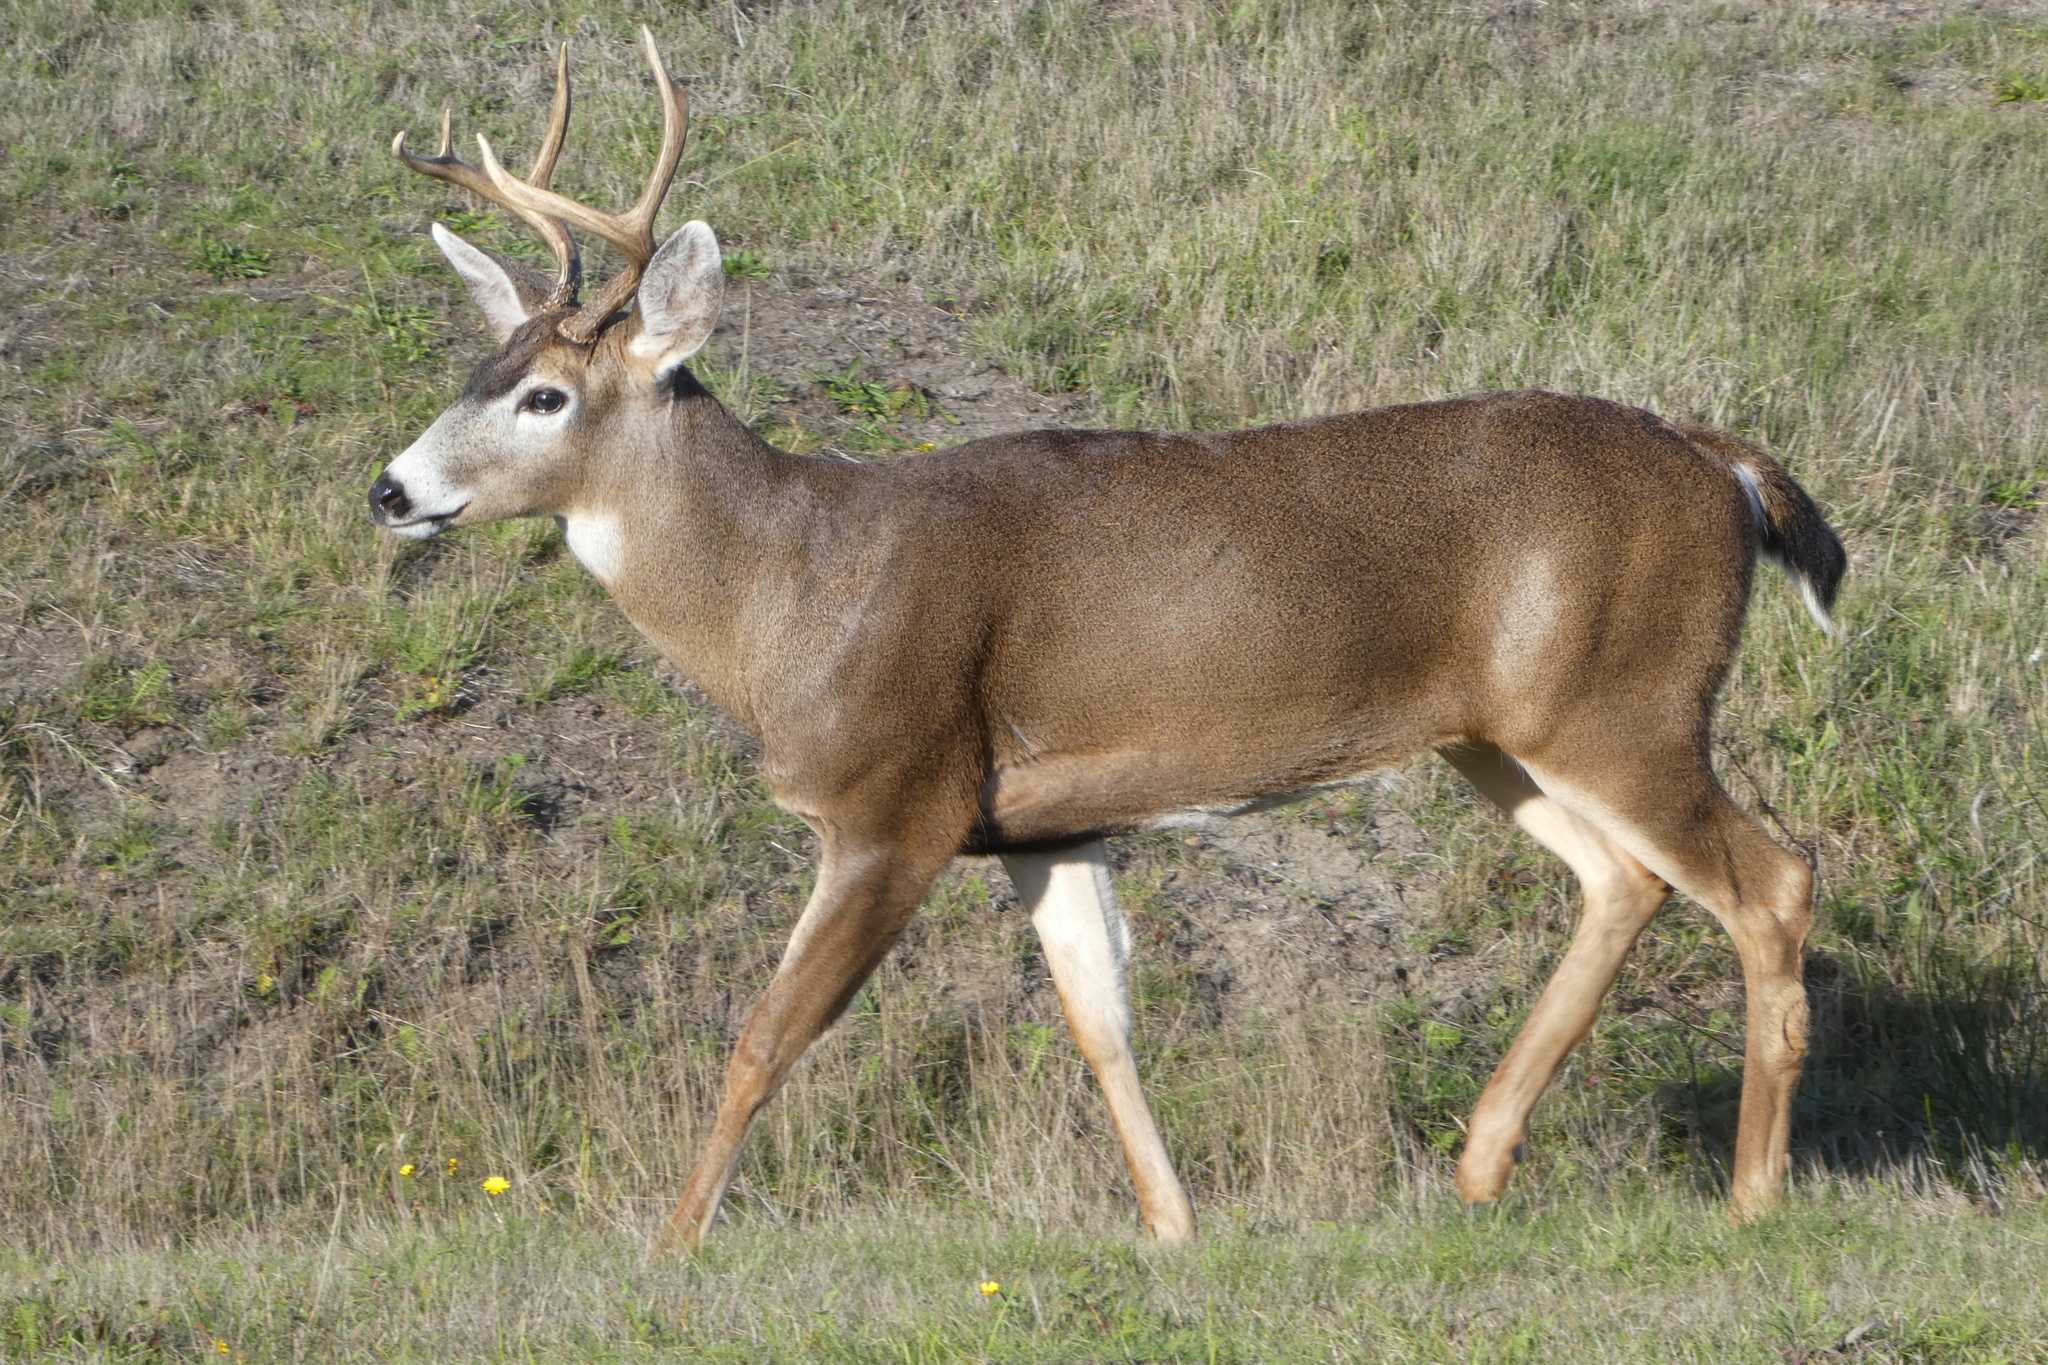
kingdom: Animalia
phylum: Chordata
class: Mammalia
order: Artiodactyla
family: Cervidae
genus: Odocoileus
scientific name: Odocoileus hemionus
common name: Mule deer
